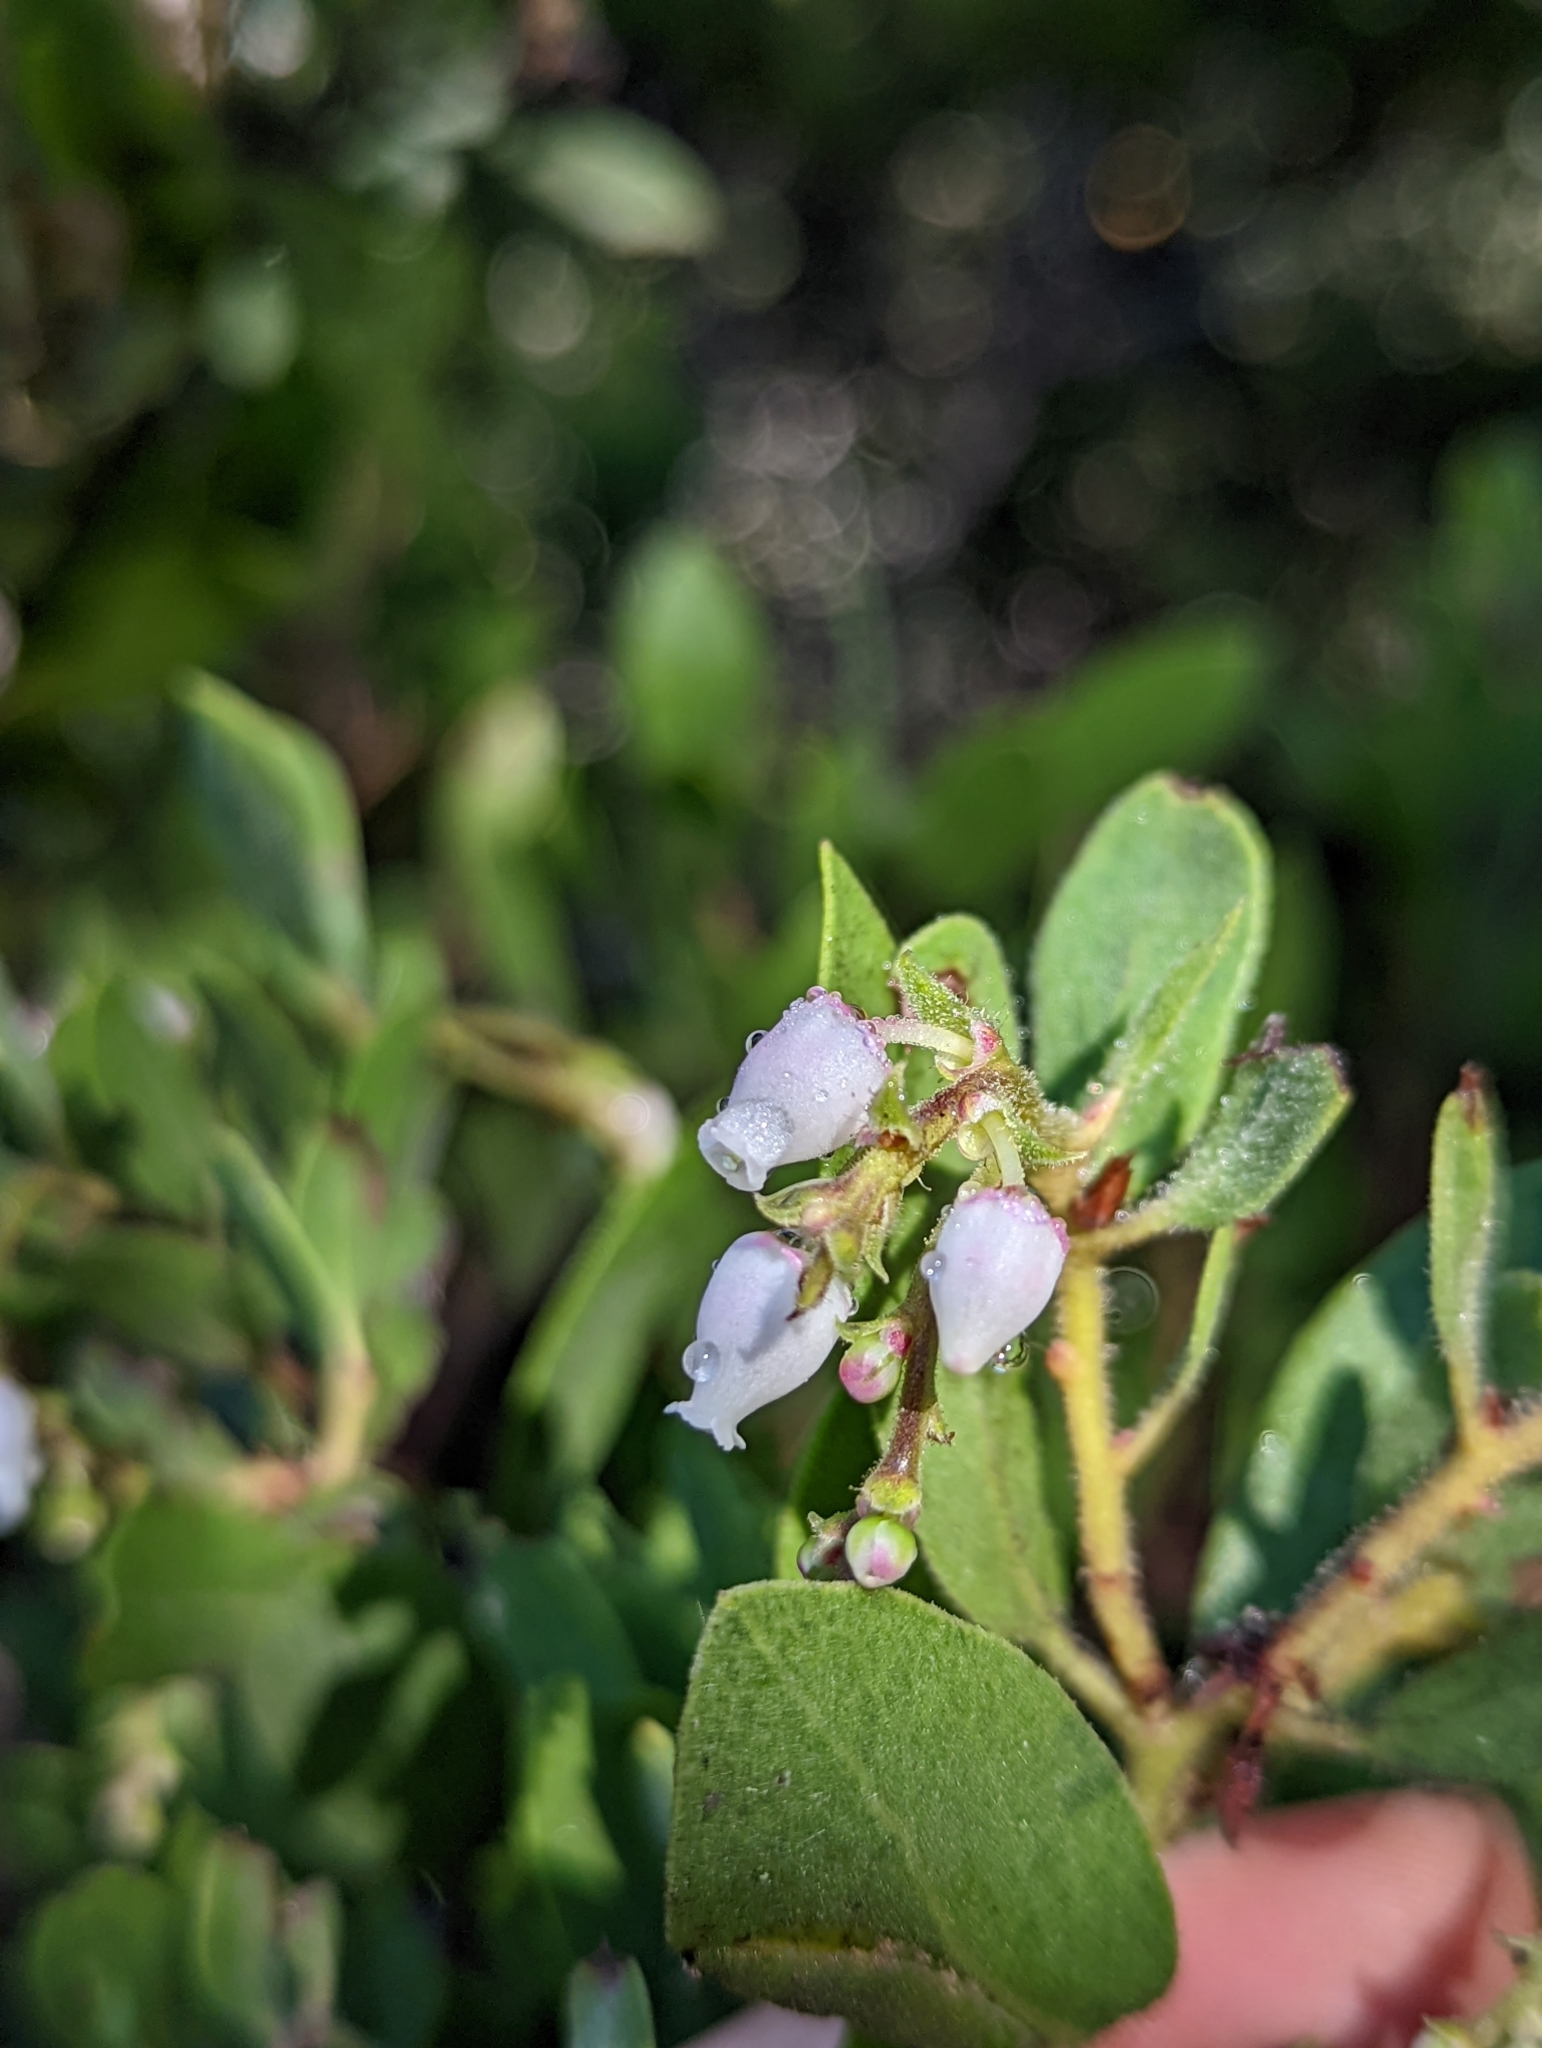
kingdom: Plantae
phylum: Tracheophyta
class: Magnoliopsida
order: Ericales
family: Ericaceae
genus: Arctostaphylos
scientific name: Arctostaphylos bakeri
